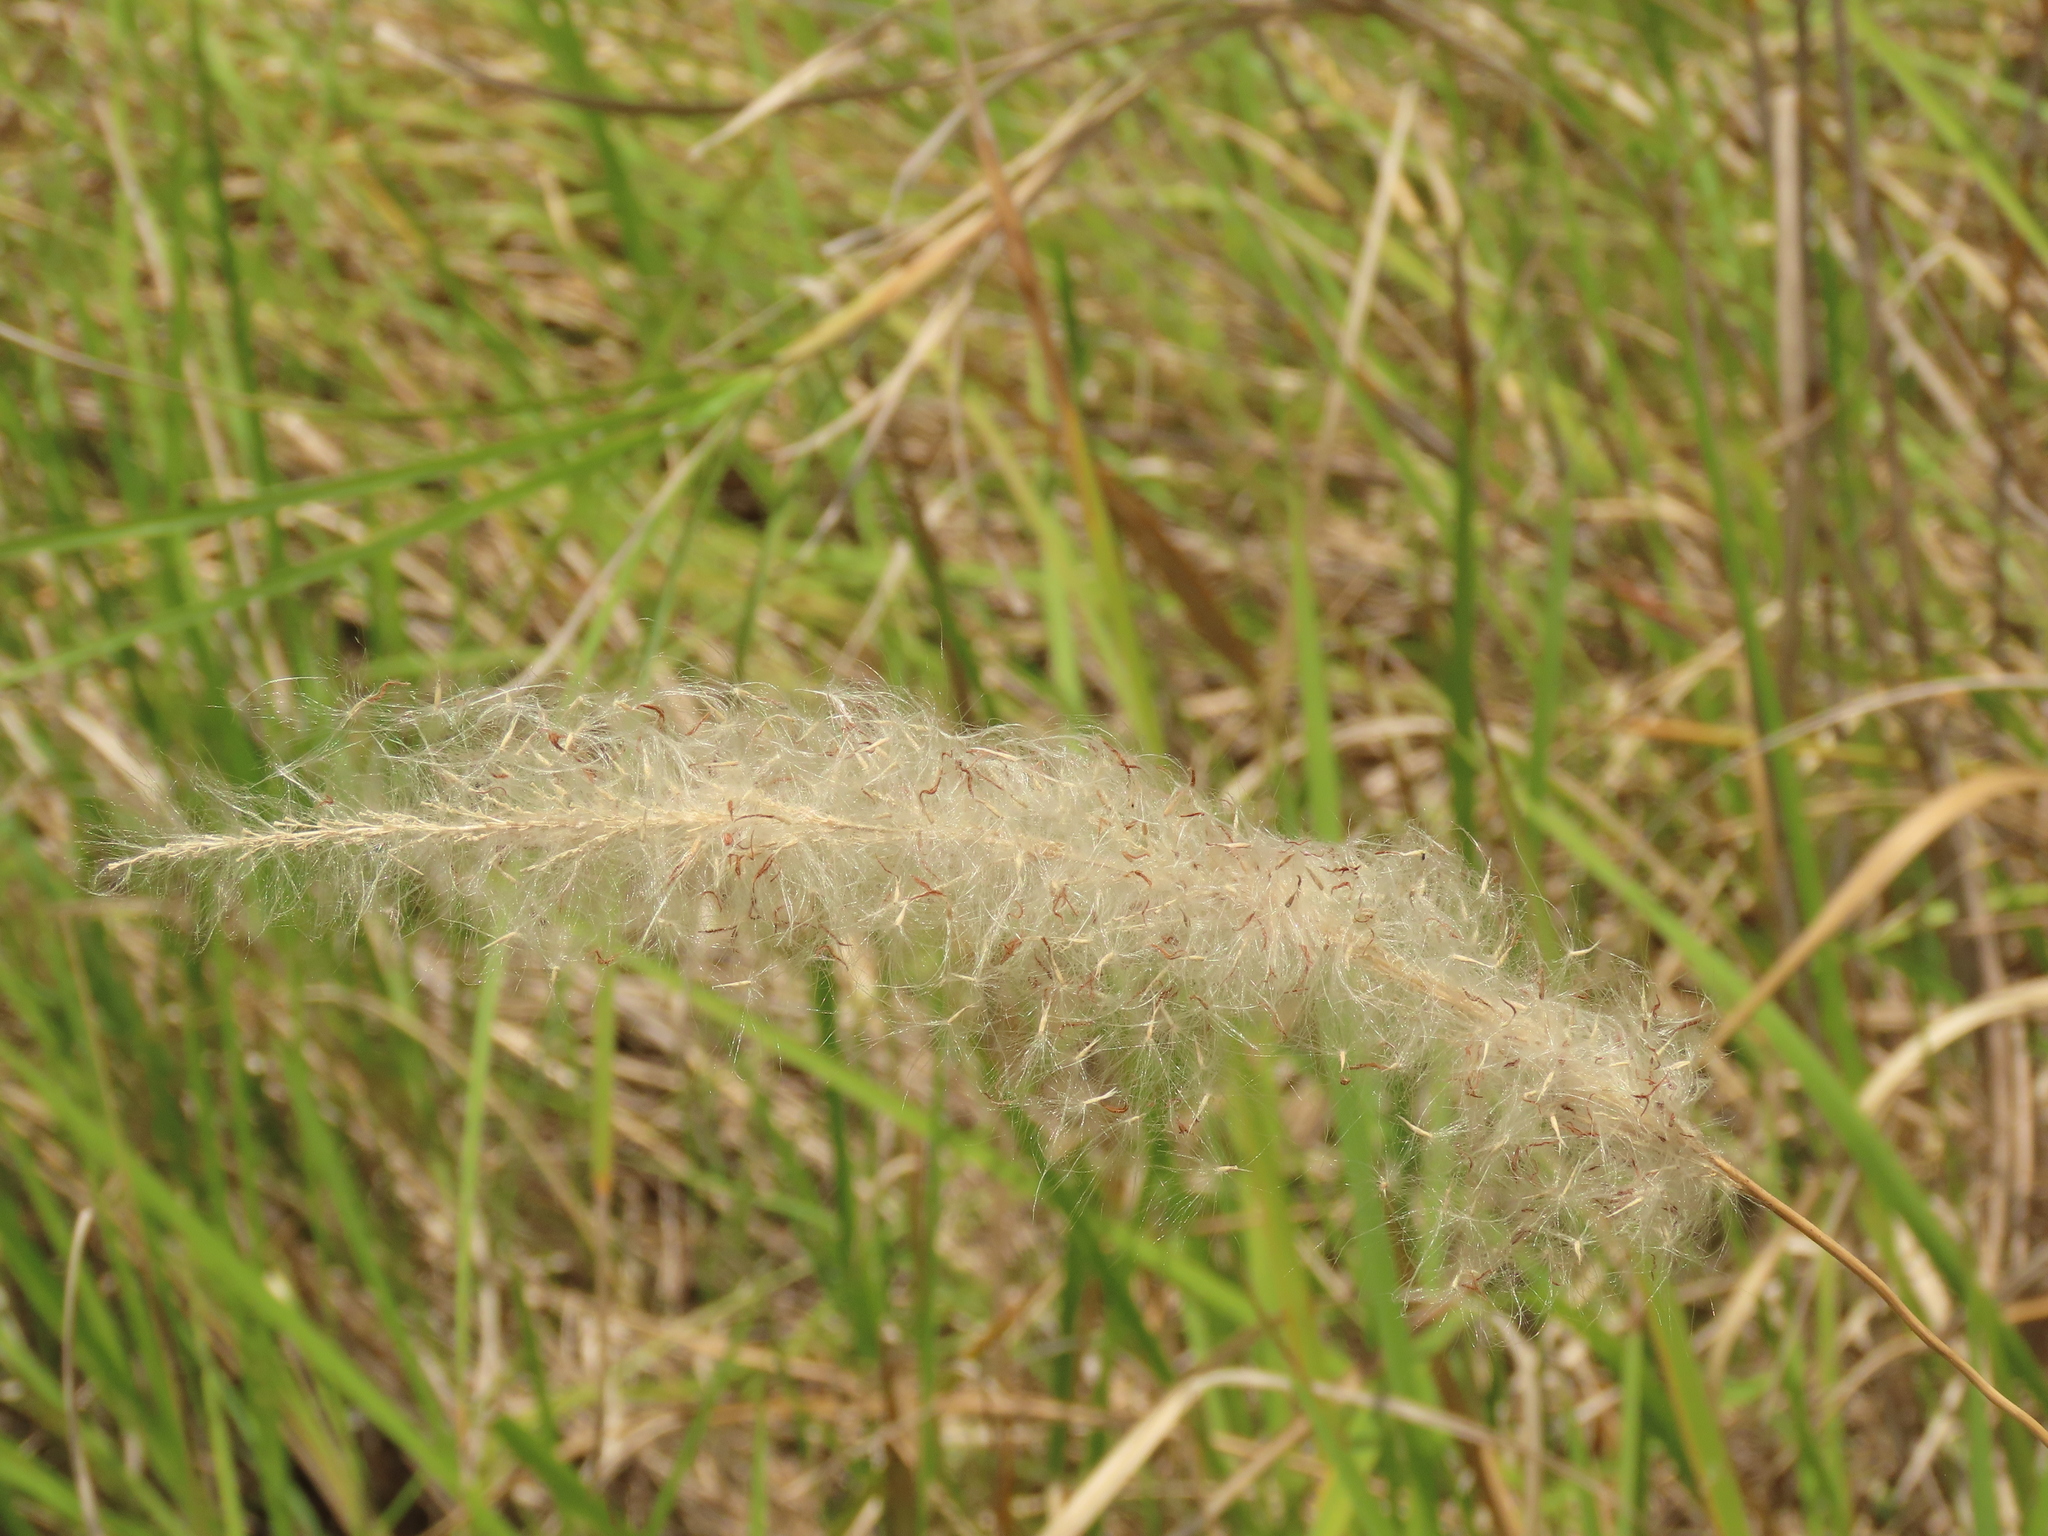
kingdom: Plantae
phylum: Tracheophyta
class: Liliopsida
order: Poales
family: Poaceae
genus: Imperata
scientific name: Imperata cylindrica
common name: Cogongrass
